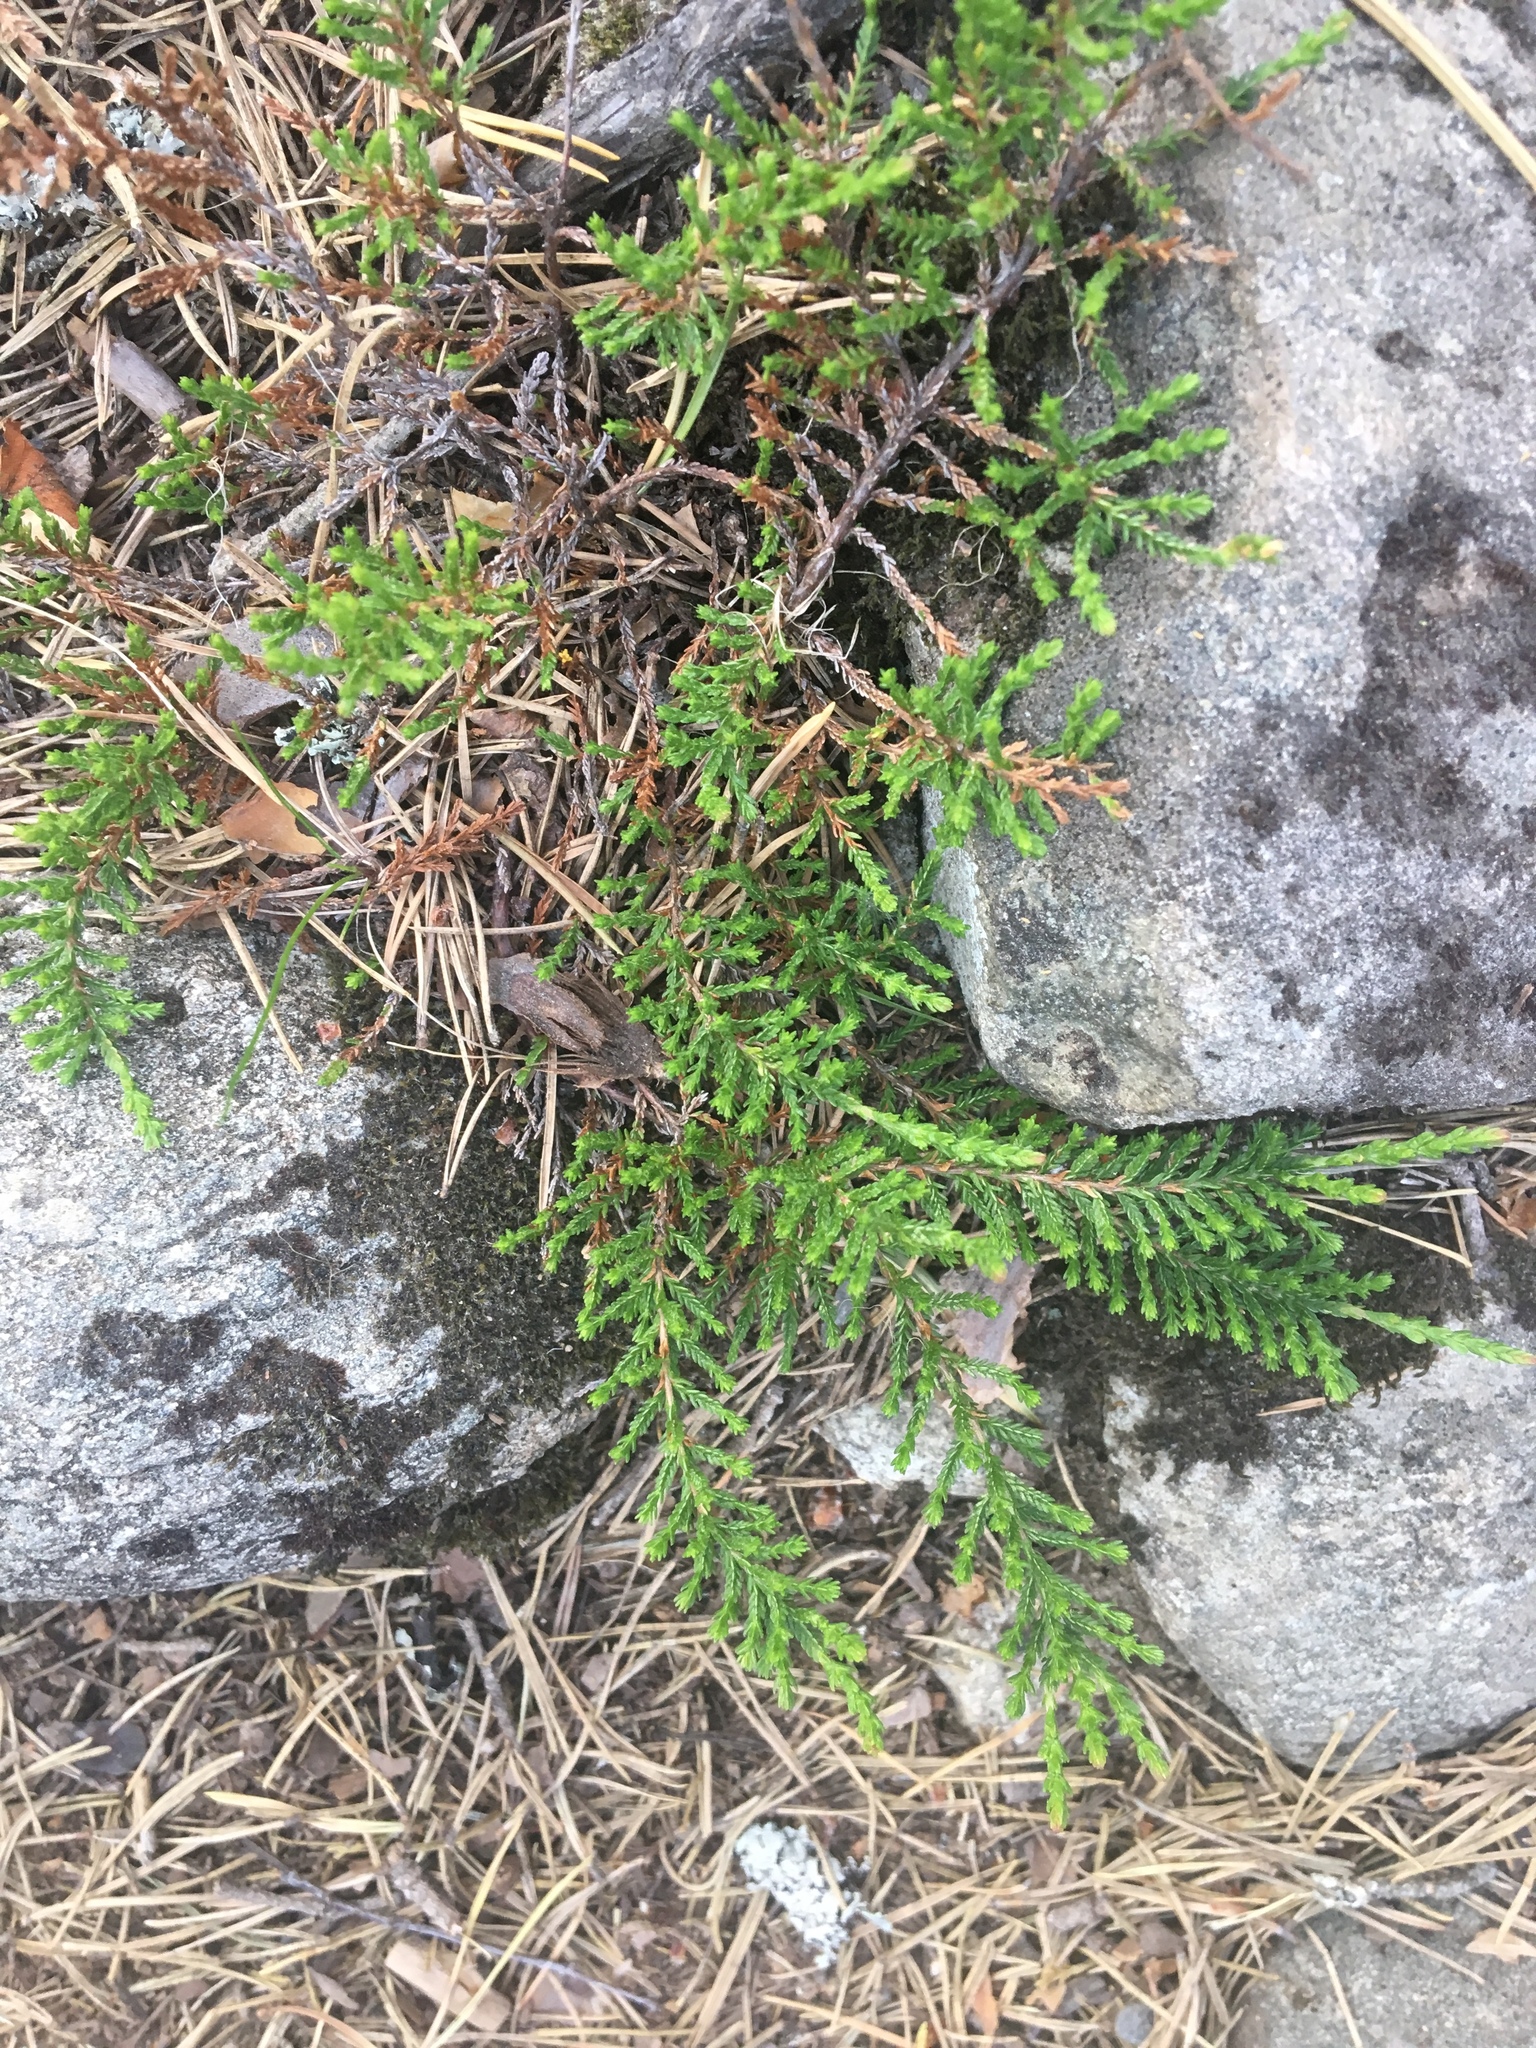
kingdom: Plantae
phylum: Tracheophyta
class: Magnoliopsida
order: Ericales
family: Ericaceae
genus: Calluna
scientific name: Calluna vulgaris
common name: Heather
